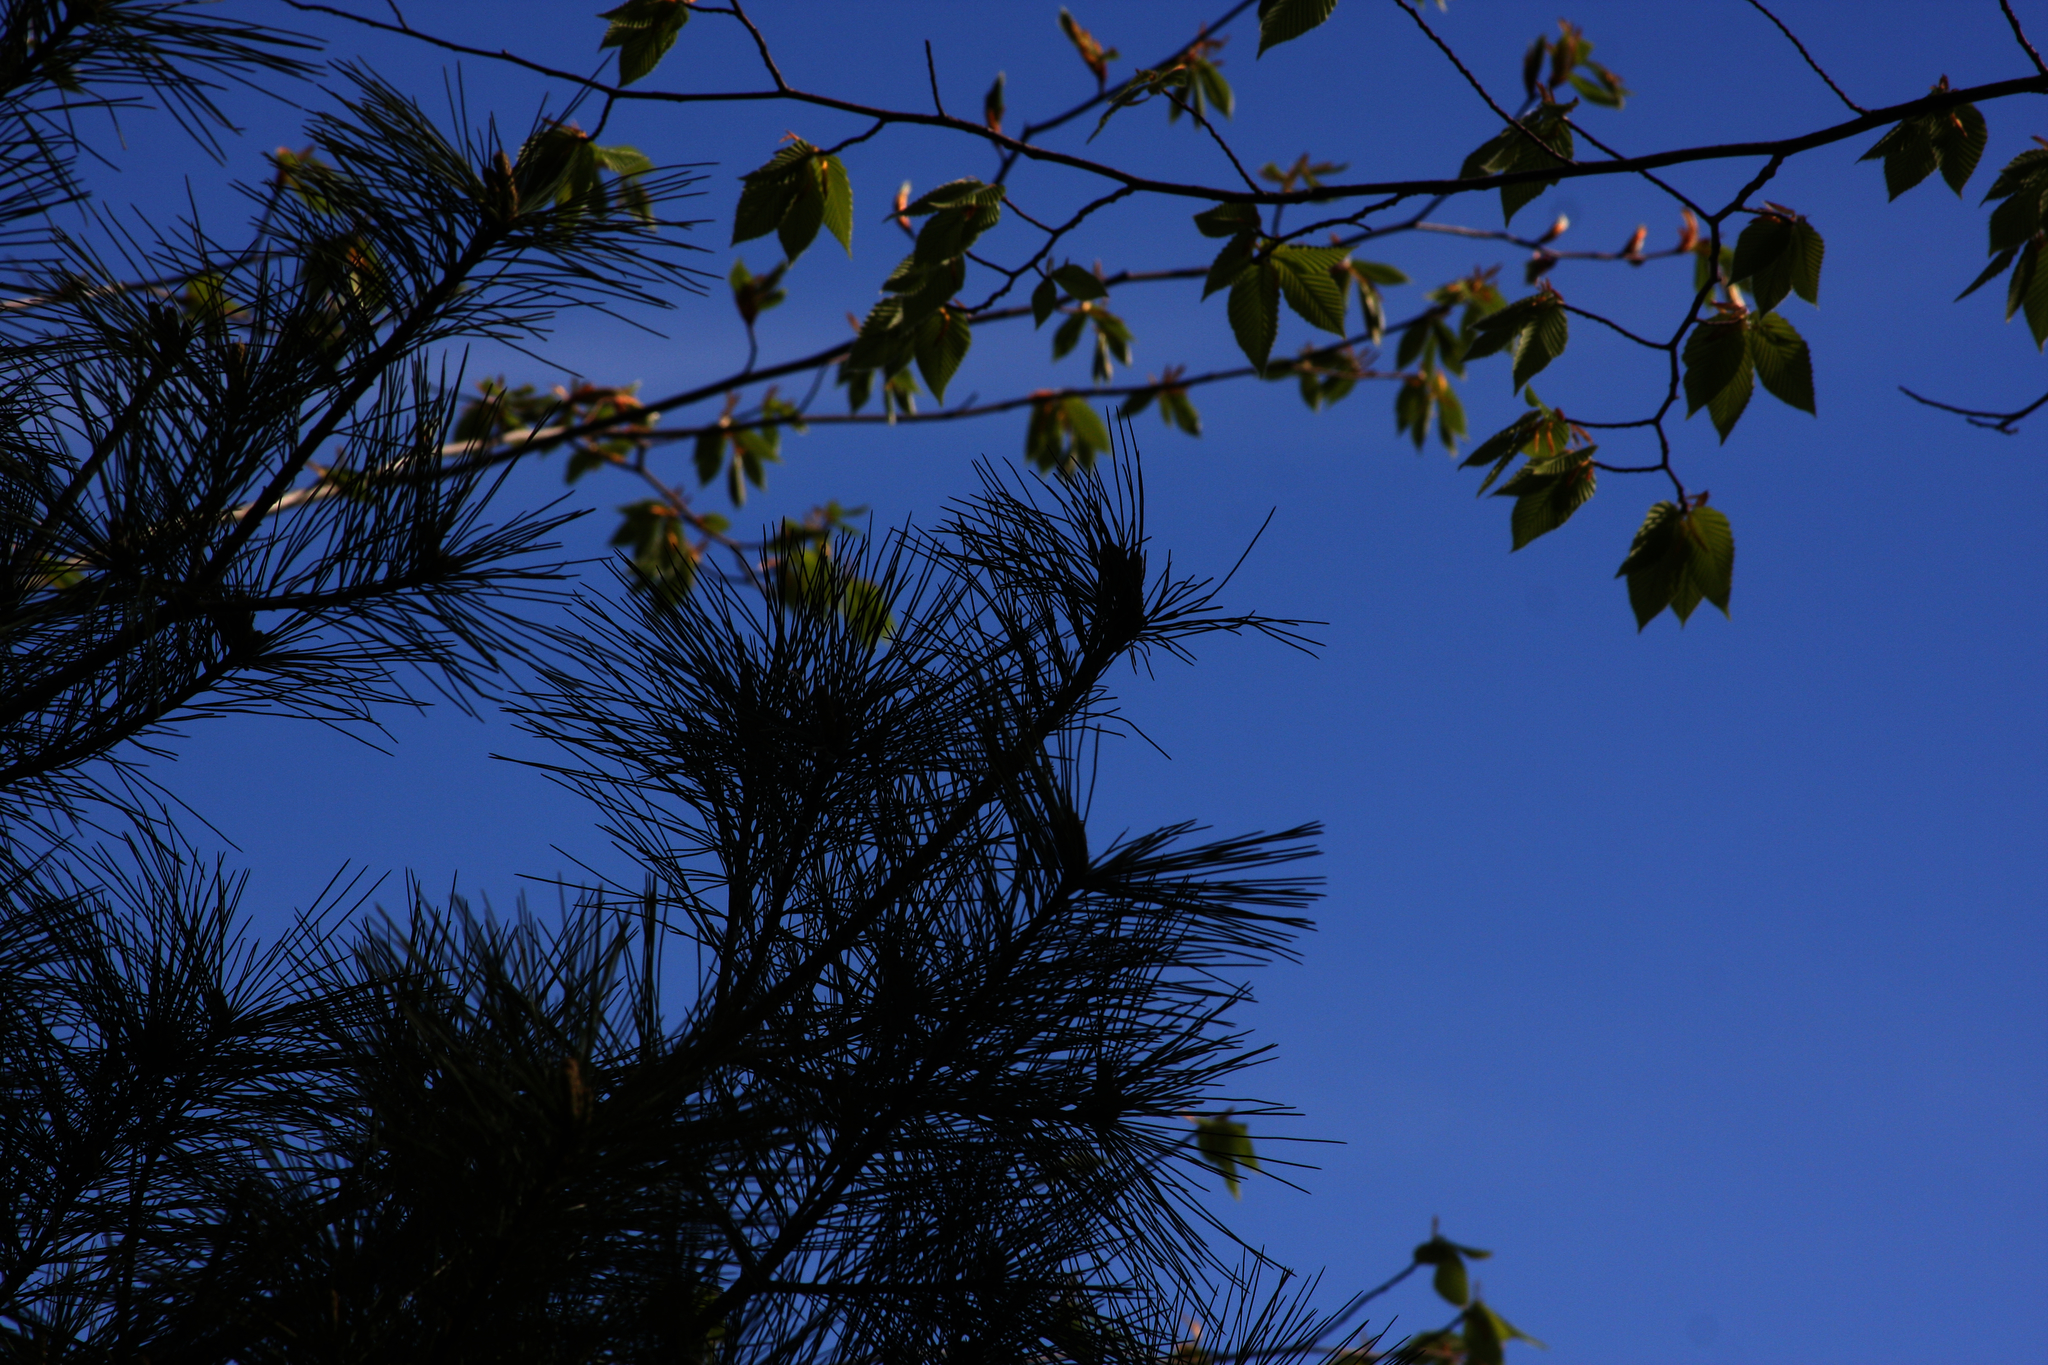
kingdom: Plantae
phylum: Tracheophyta
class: Pinopsida
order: Pinales
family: Pinaceae
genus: Pinus
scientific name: Pinus strobus
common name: Weymouth pine
